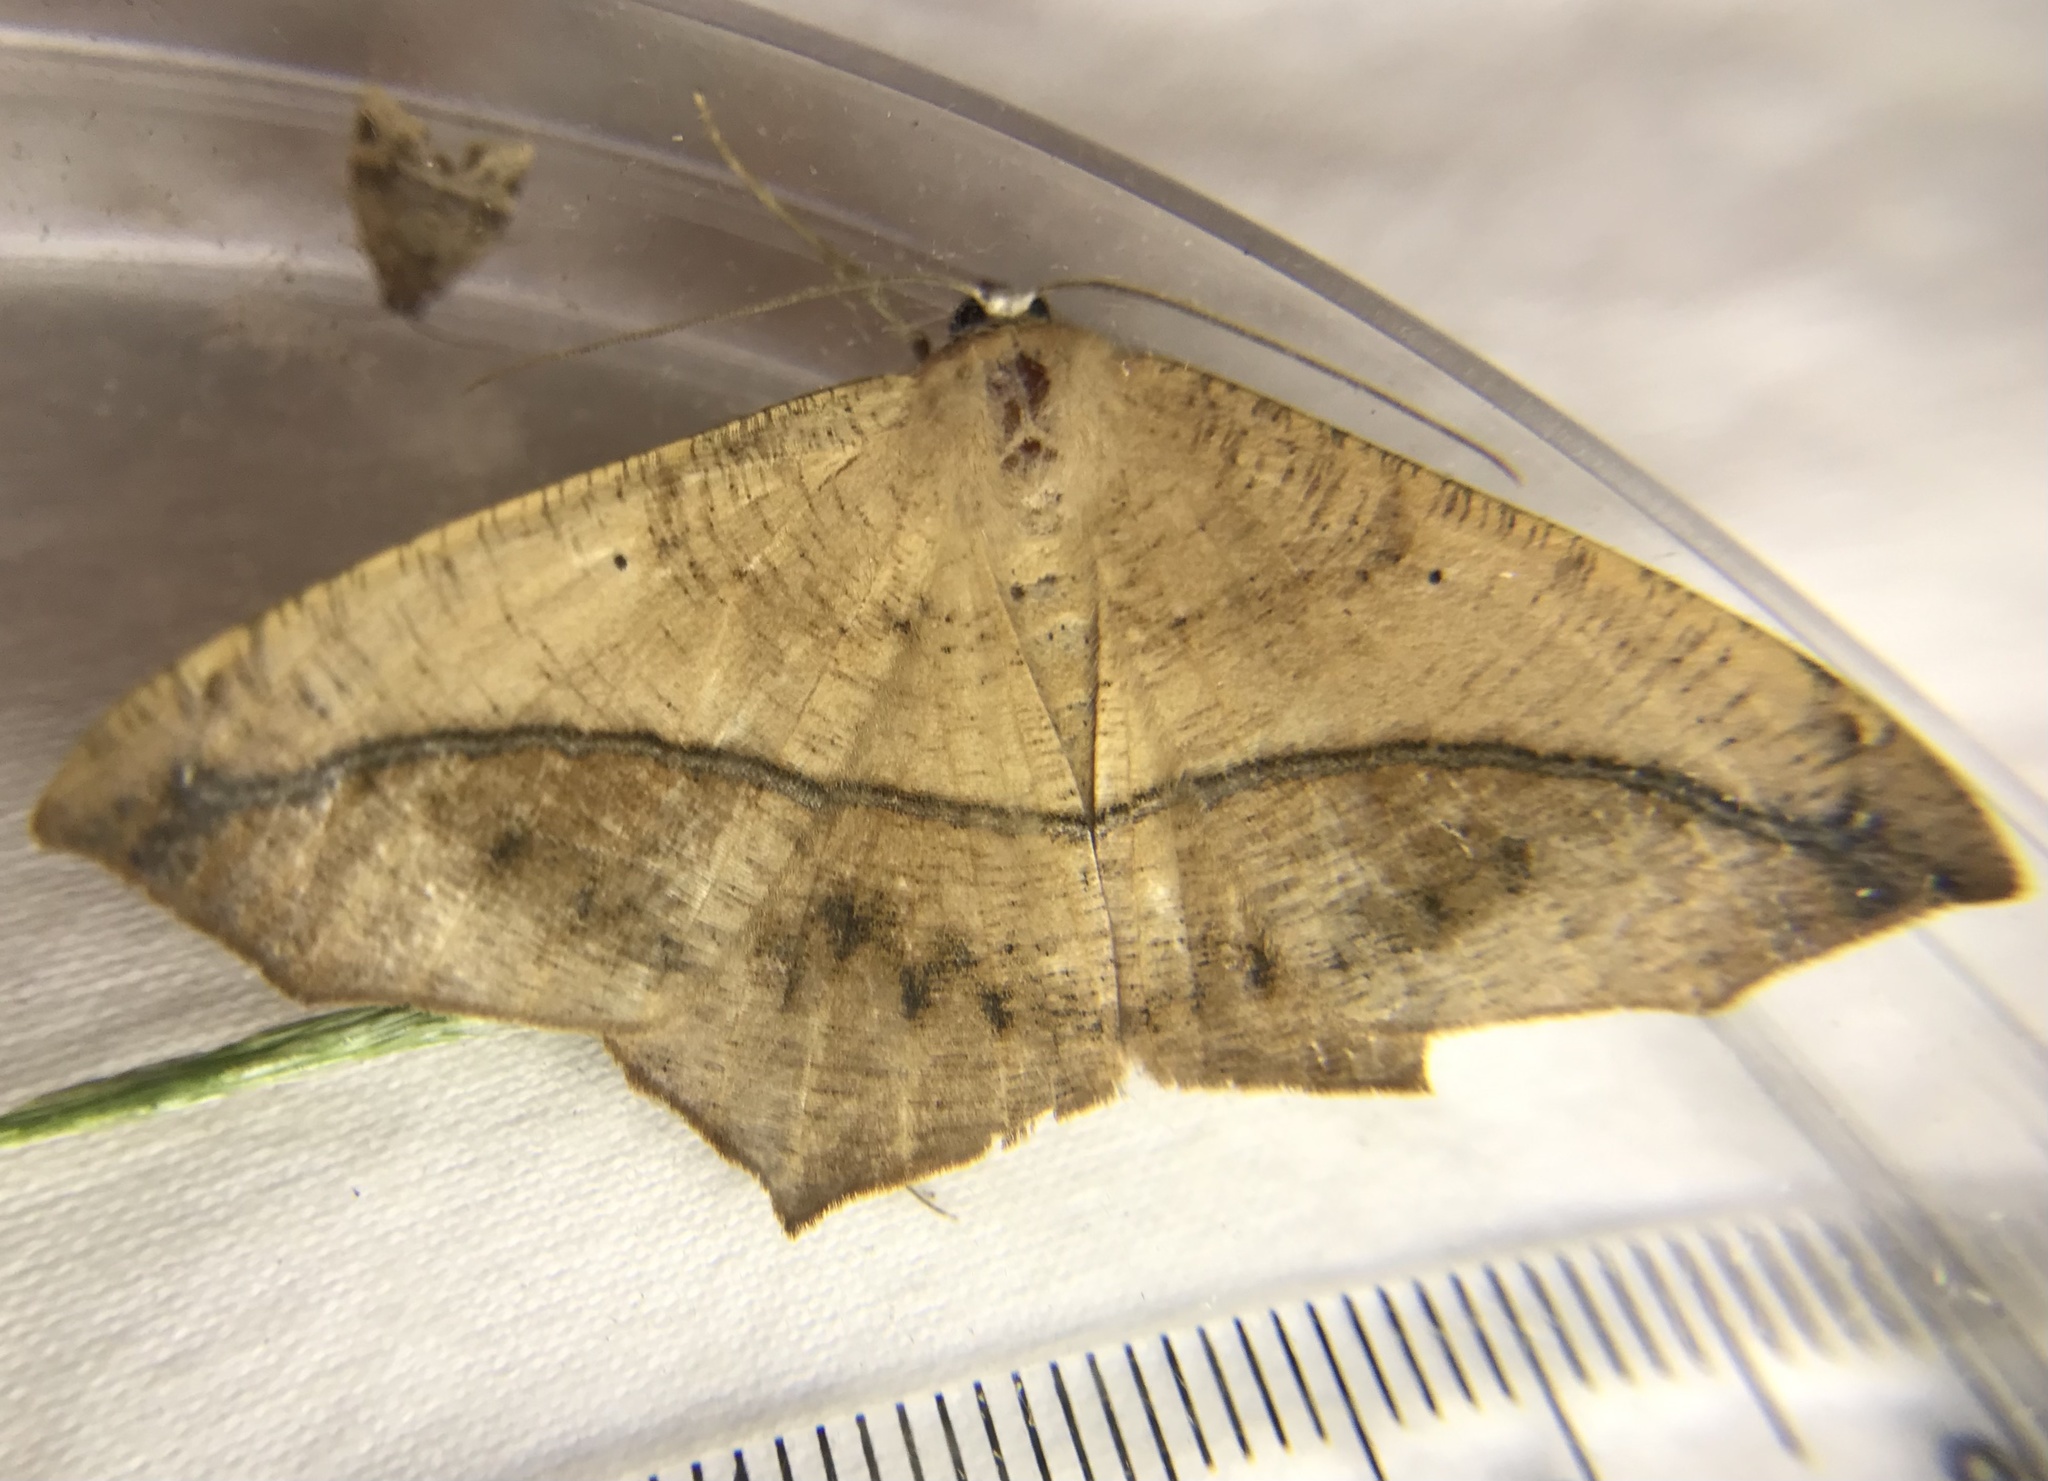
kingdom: Animalia
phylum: Arthropoda
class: Insecta
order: Lepidoptera
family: Geometridae
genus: Prochoerodes
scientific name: Prochoerodes lineola
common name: Large maple spanworm
